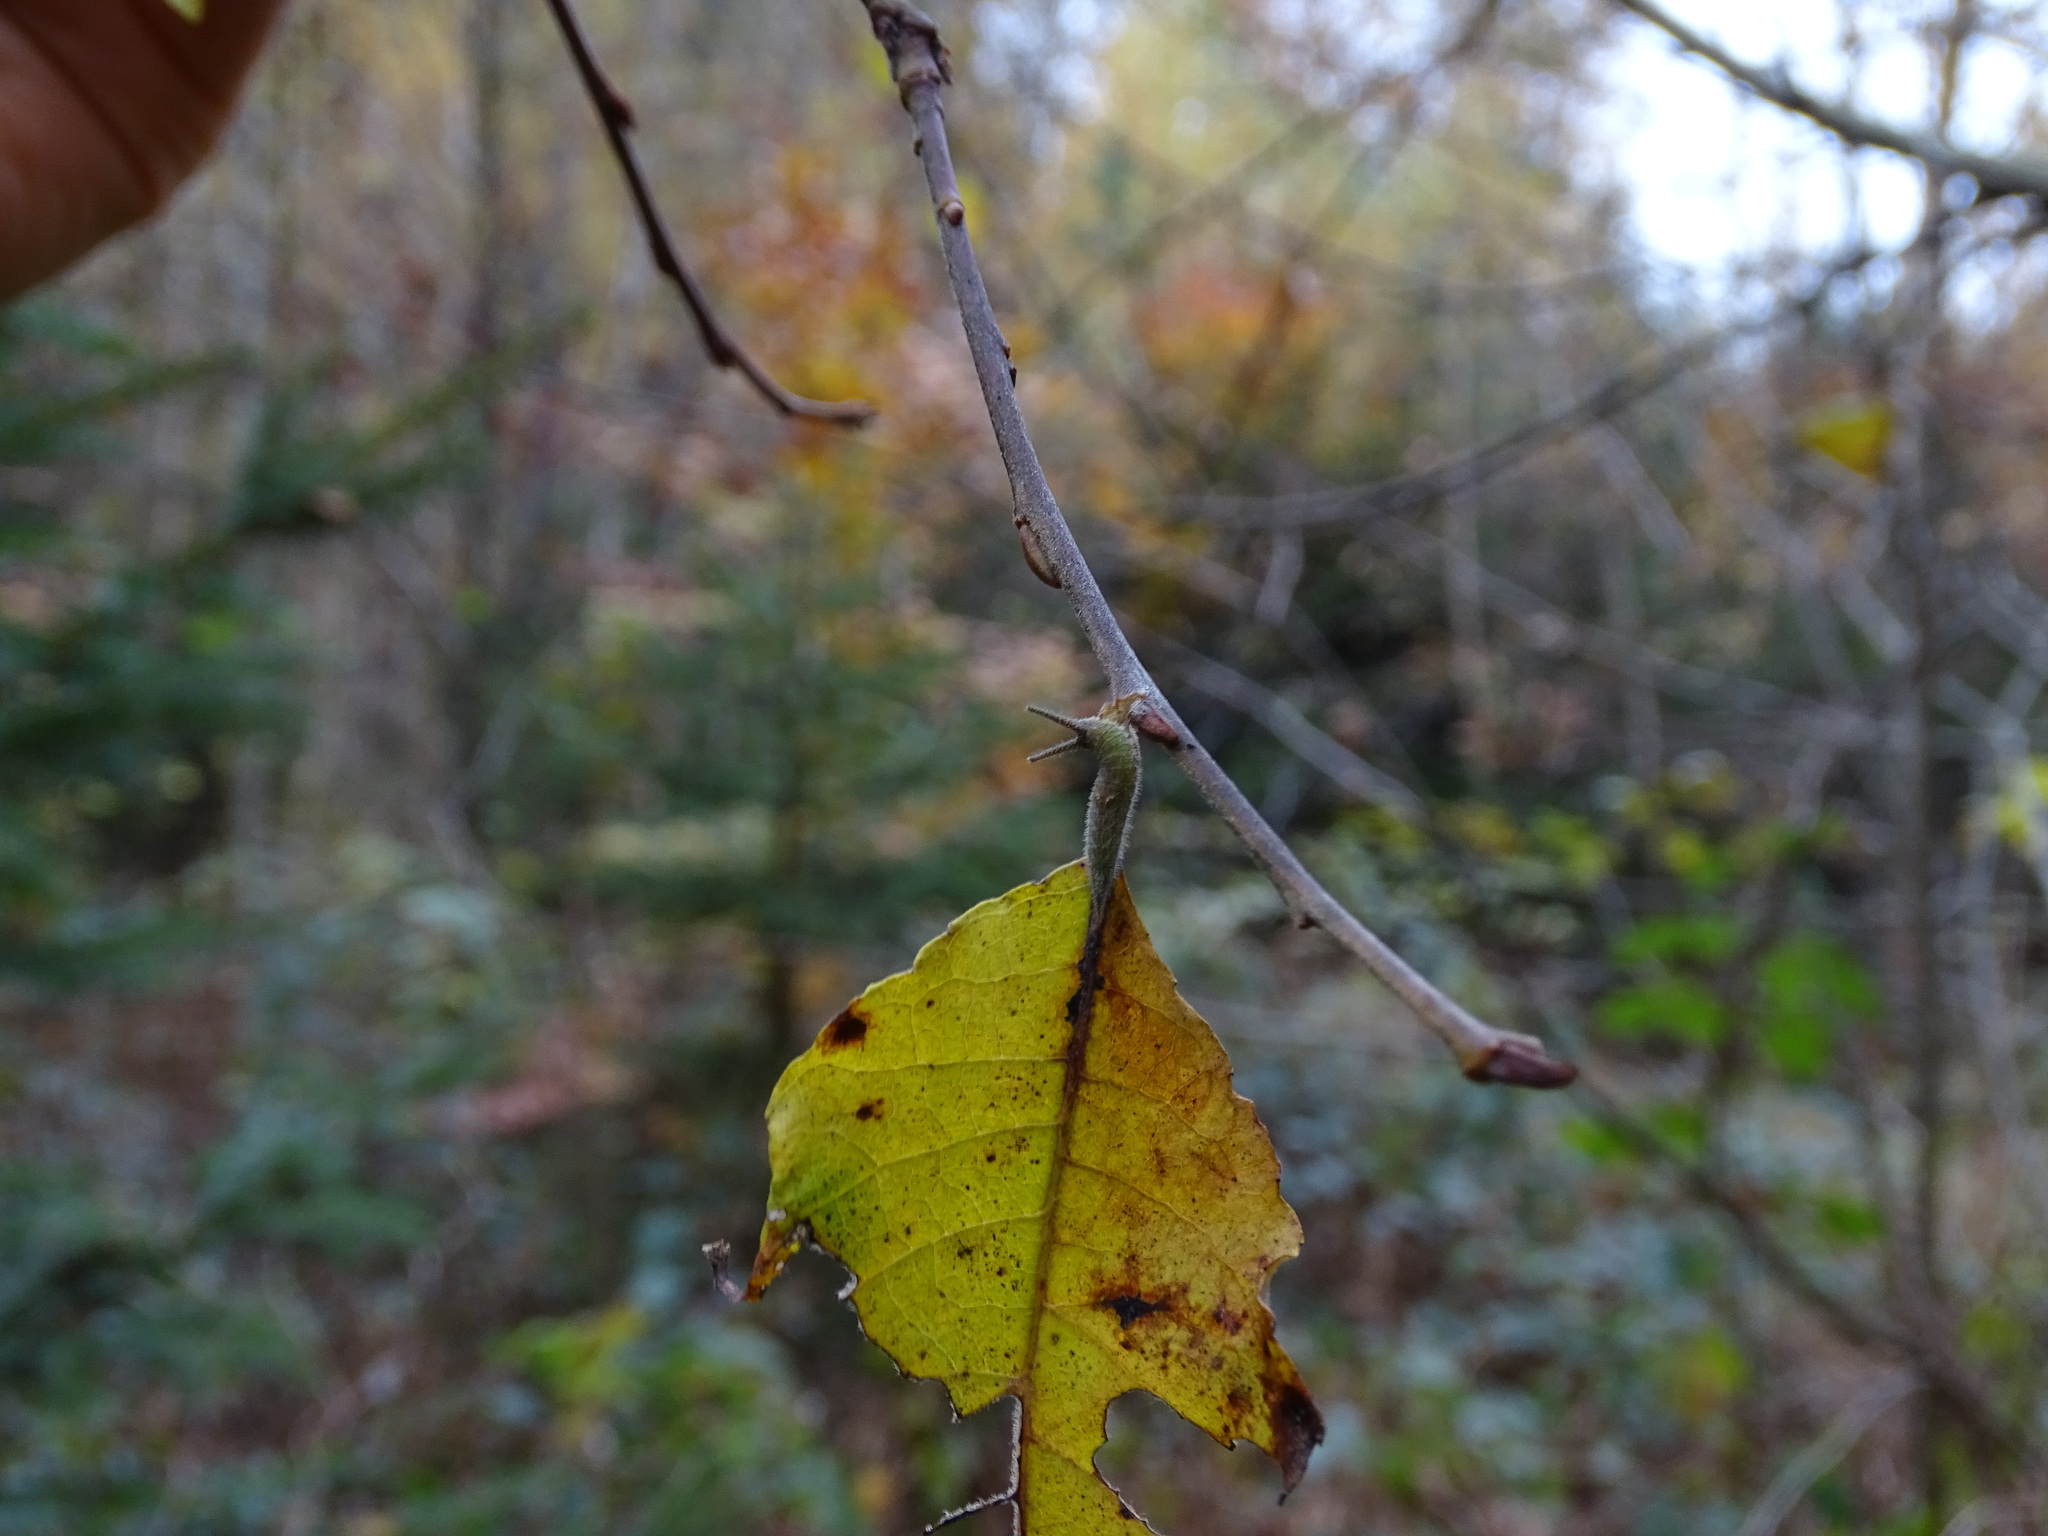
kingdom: Animalia
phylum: Arthropoda
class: Insecta
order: Lepidoptera
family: Nymphalidae
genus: Apatura
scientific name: Apatura iris
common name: Purple emperor
